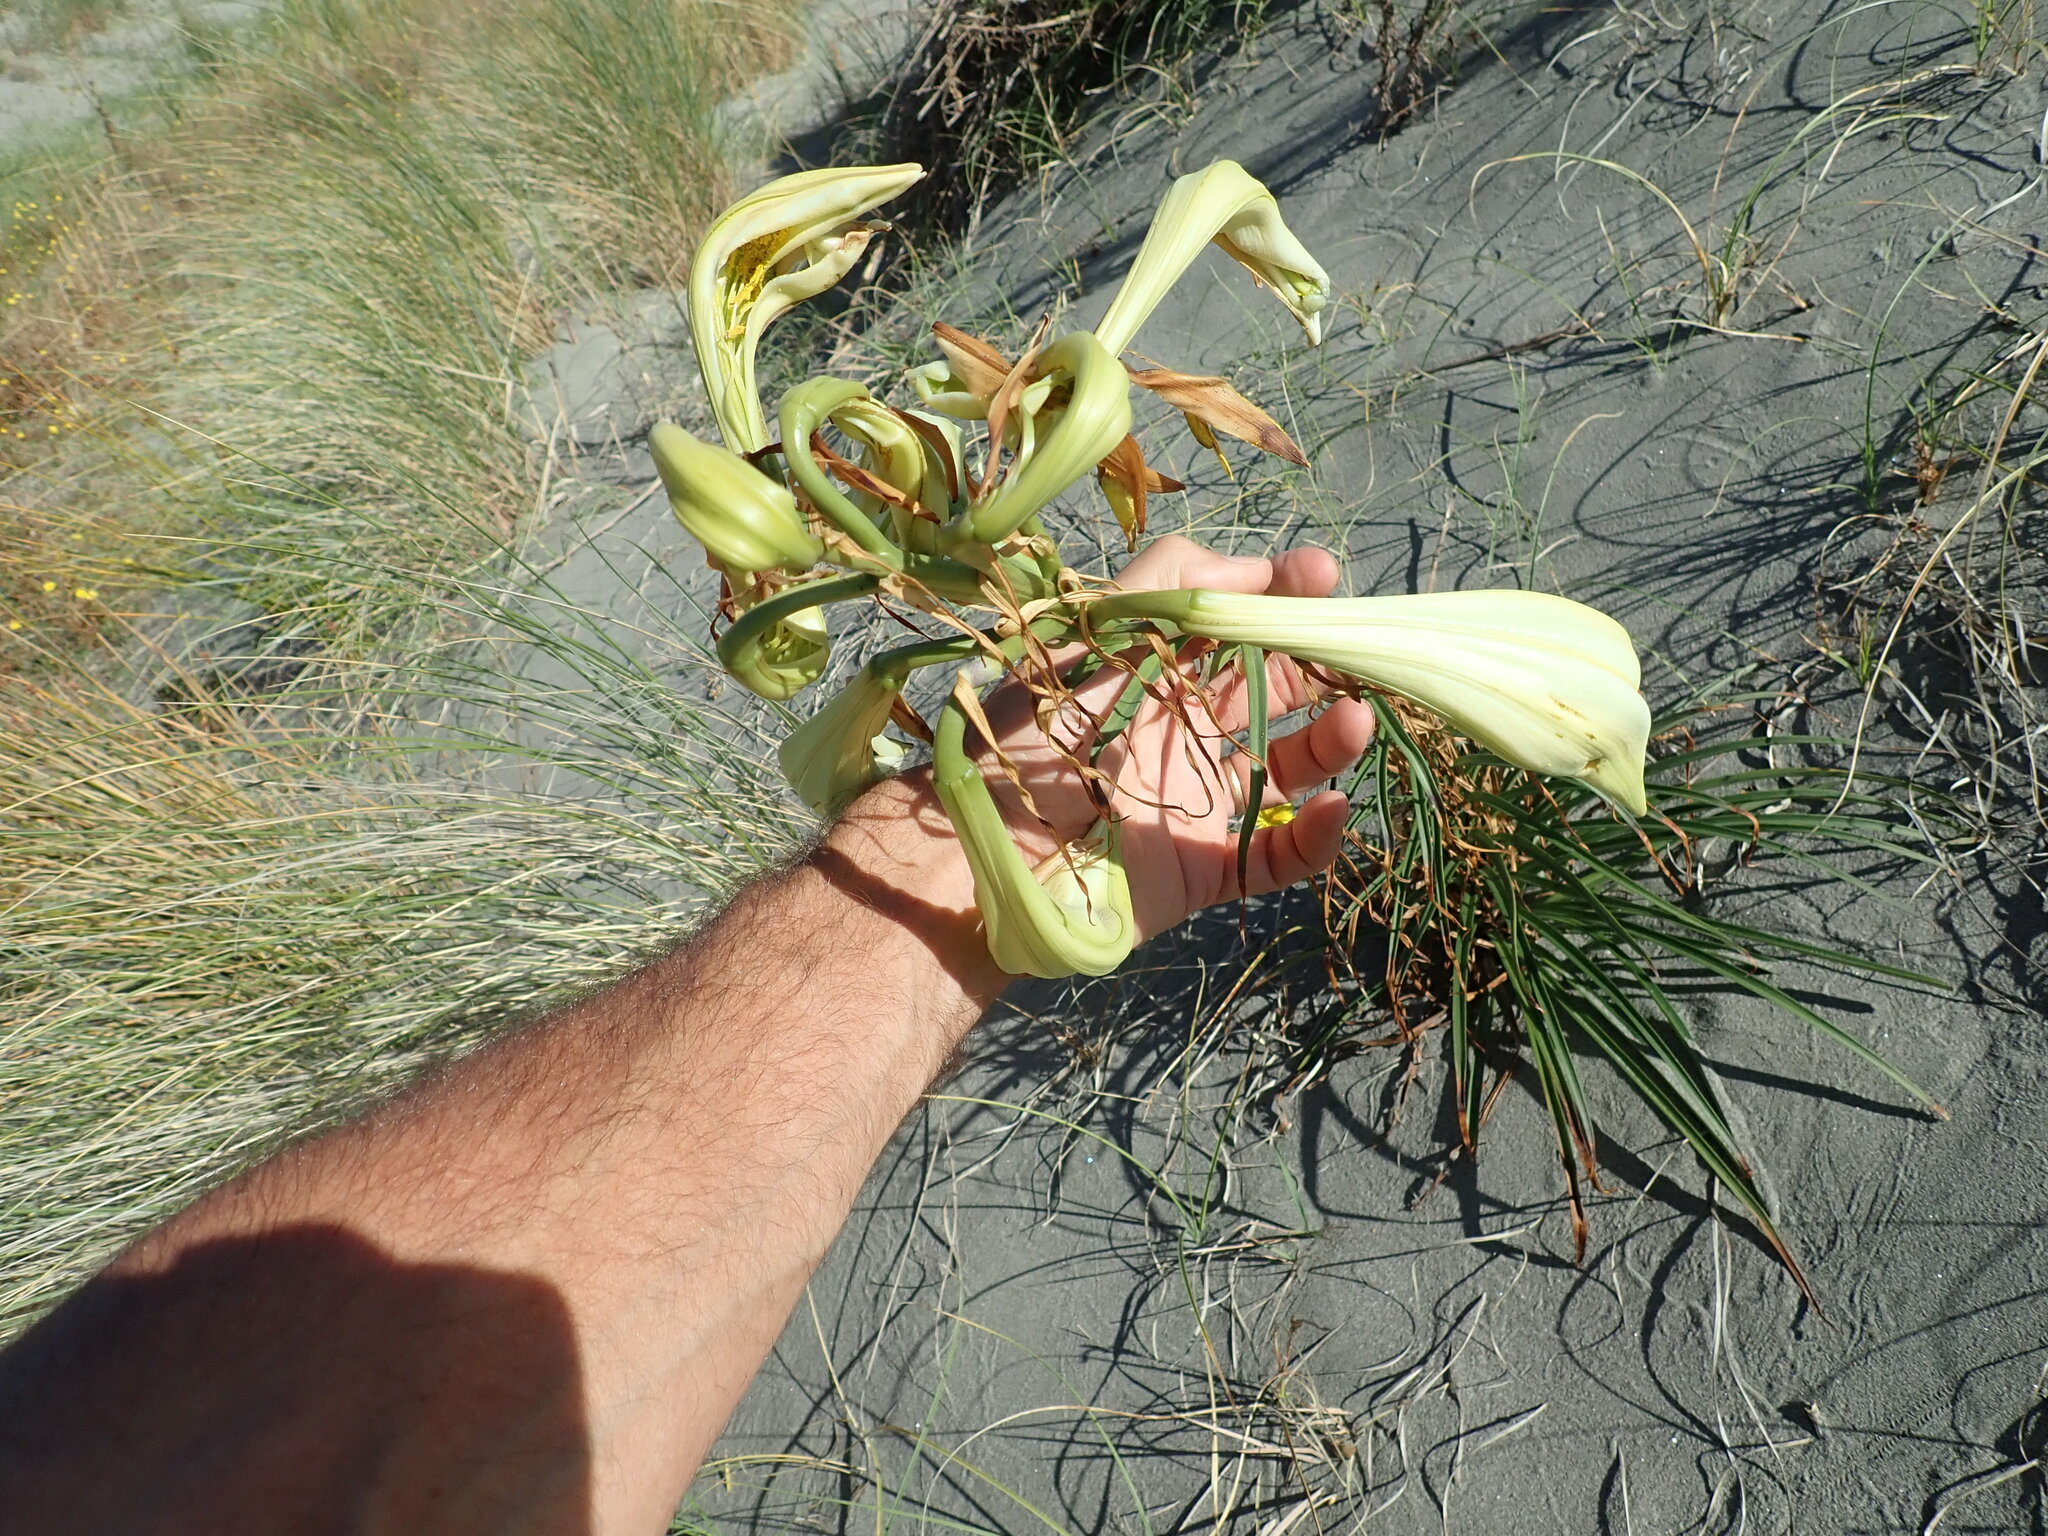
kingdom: Plantae
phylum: Tracheophyta
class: Liliopsida
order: Liliales
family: Liliaceae
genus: Lilium
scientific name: Lilium formosanum
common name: Formosa lily
